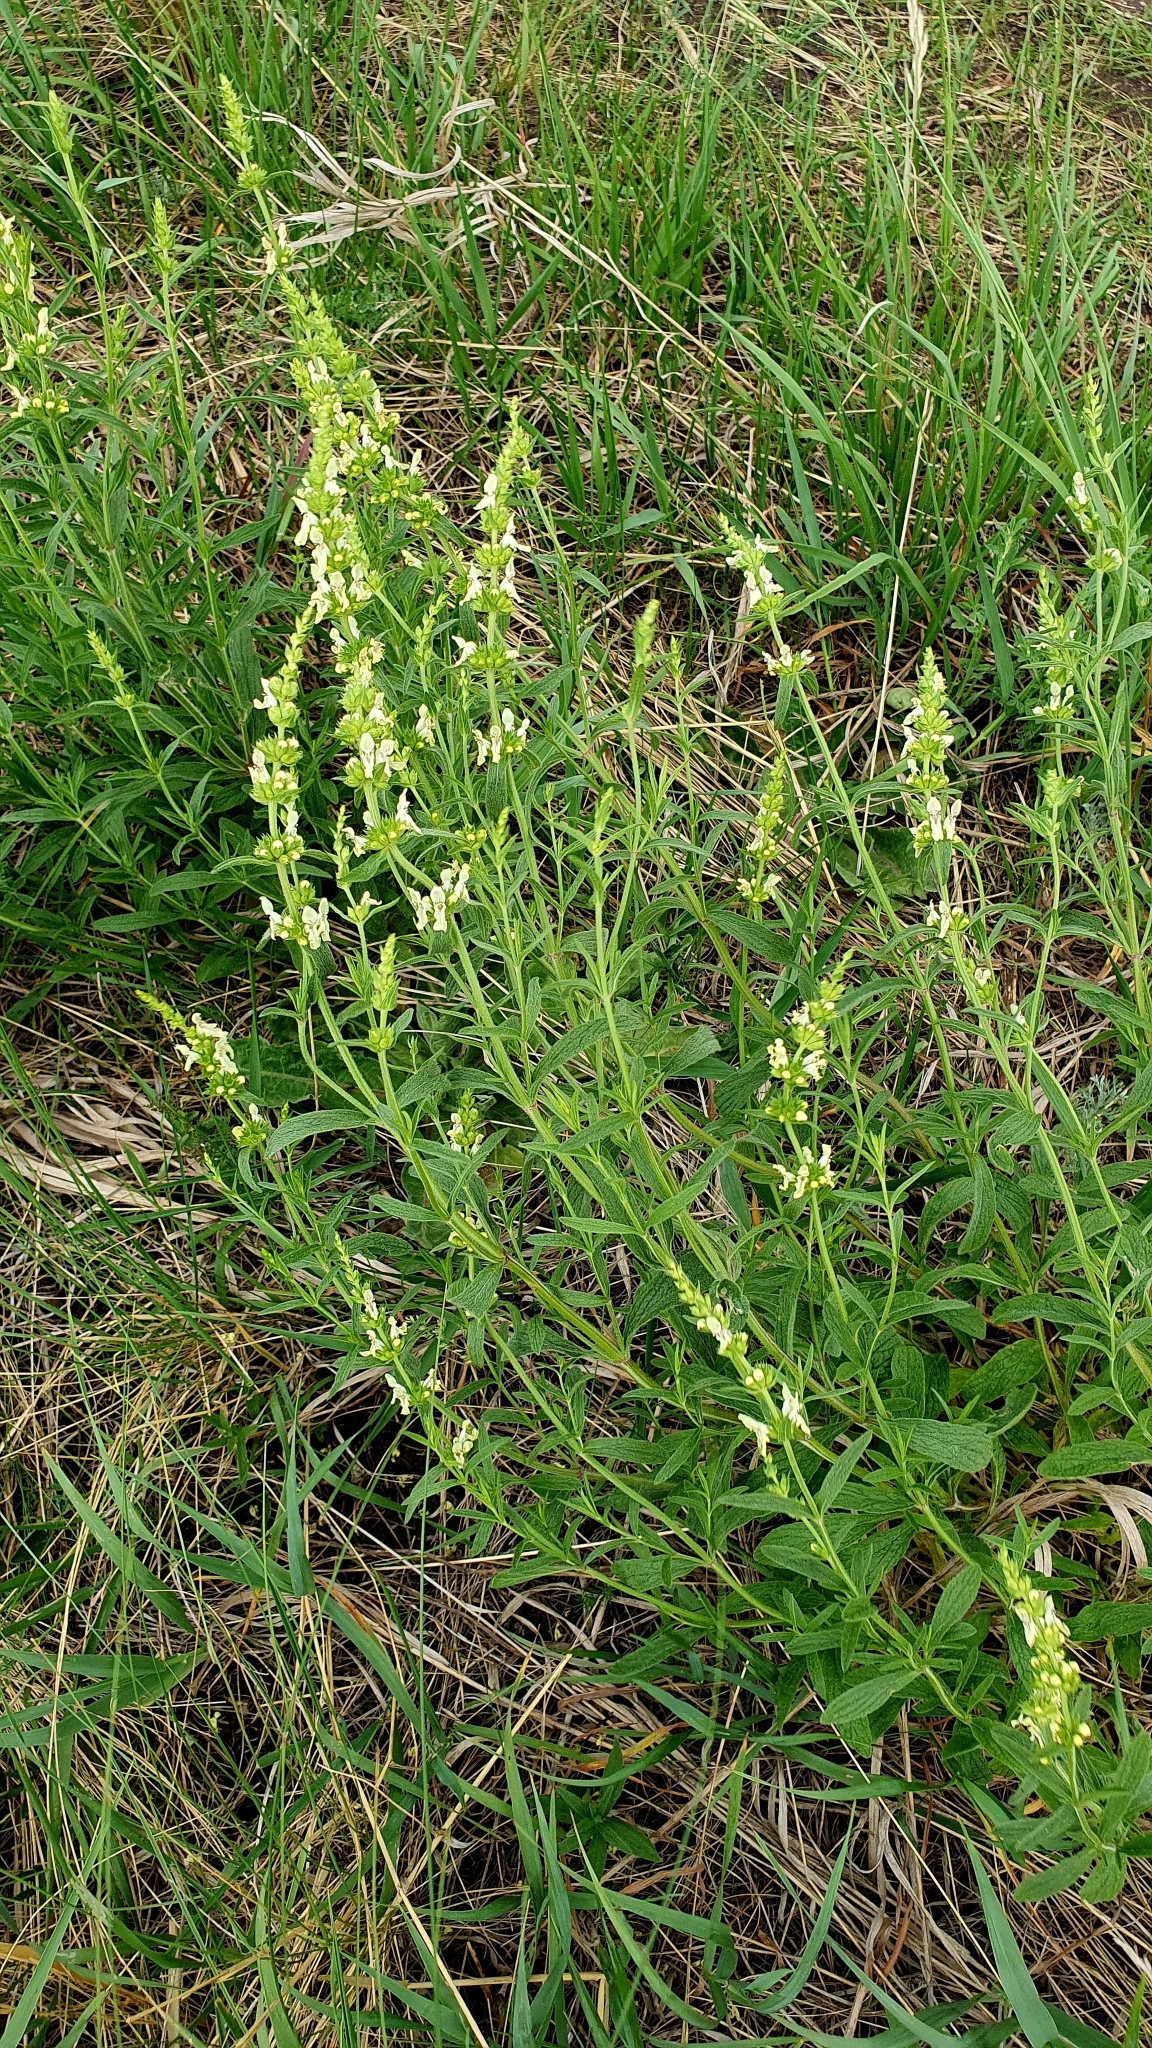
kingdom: Plantae
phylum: Tracheophyta
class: Magnoliopsida
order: Lamiales
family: Lamiaceae
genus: Stachys
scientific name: Stachys recta
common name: Perennial yellow-woundwort
